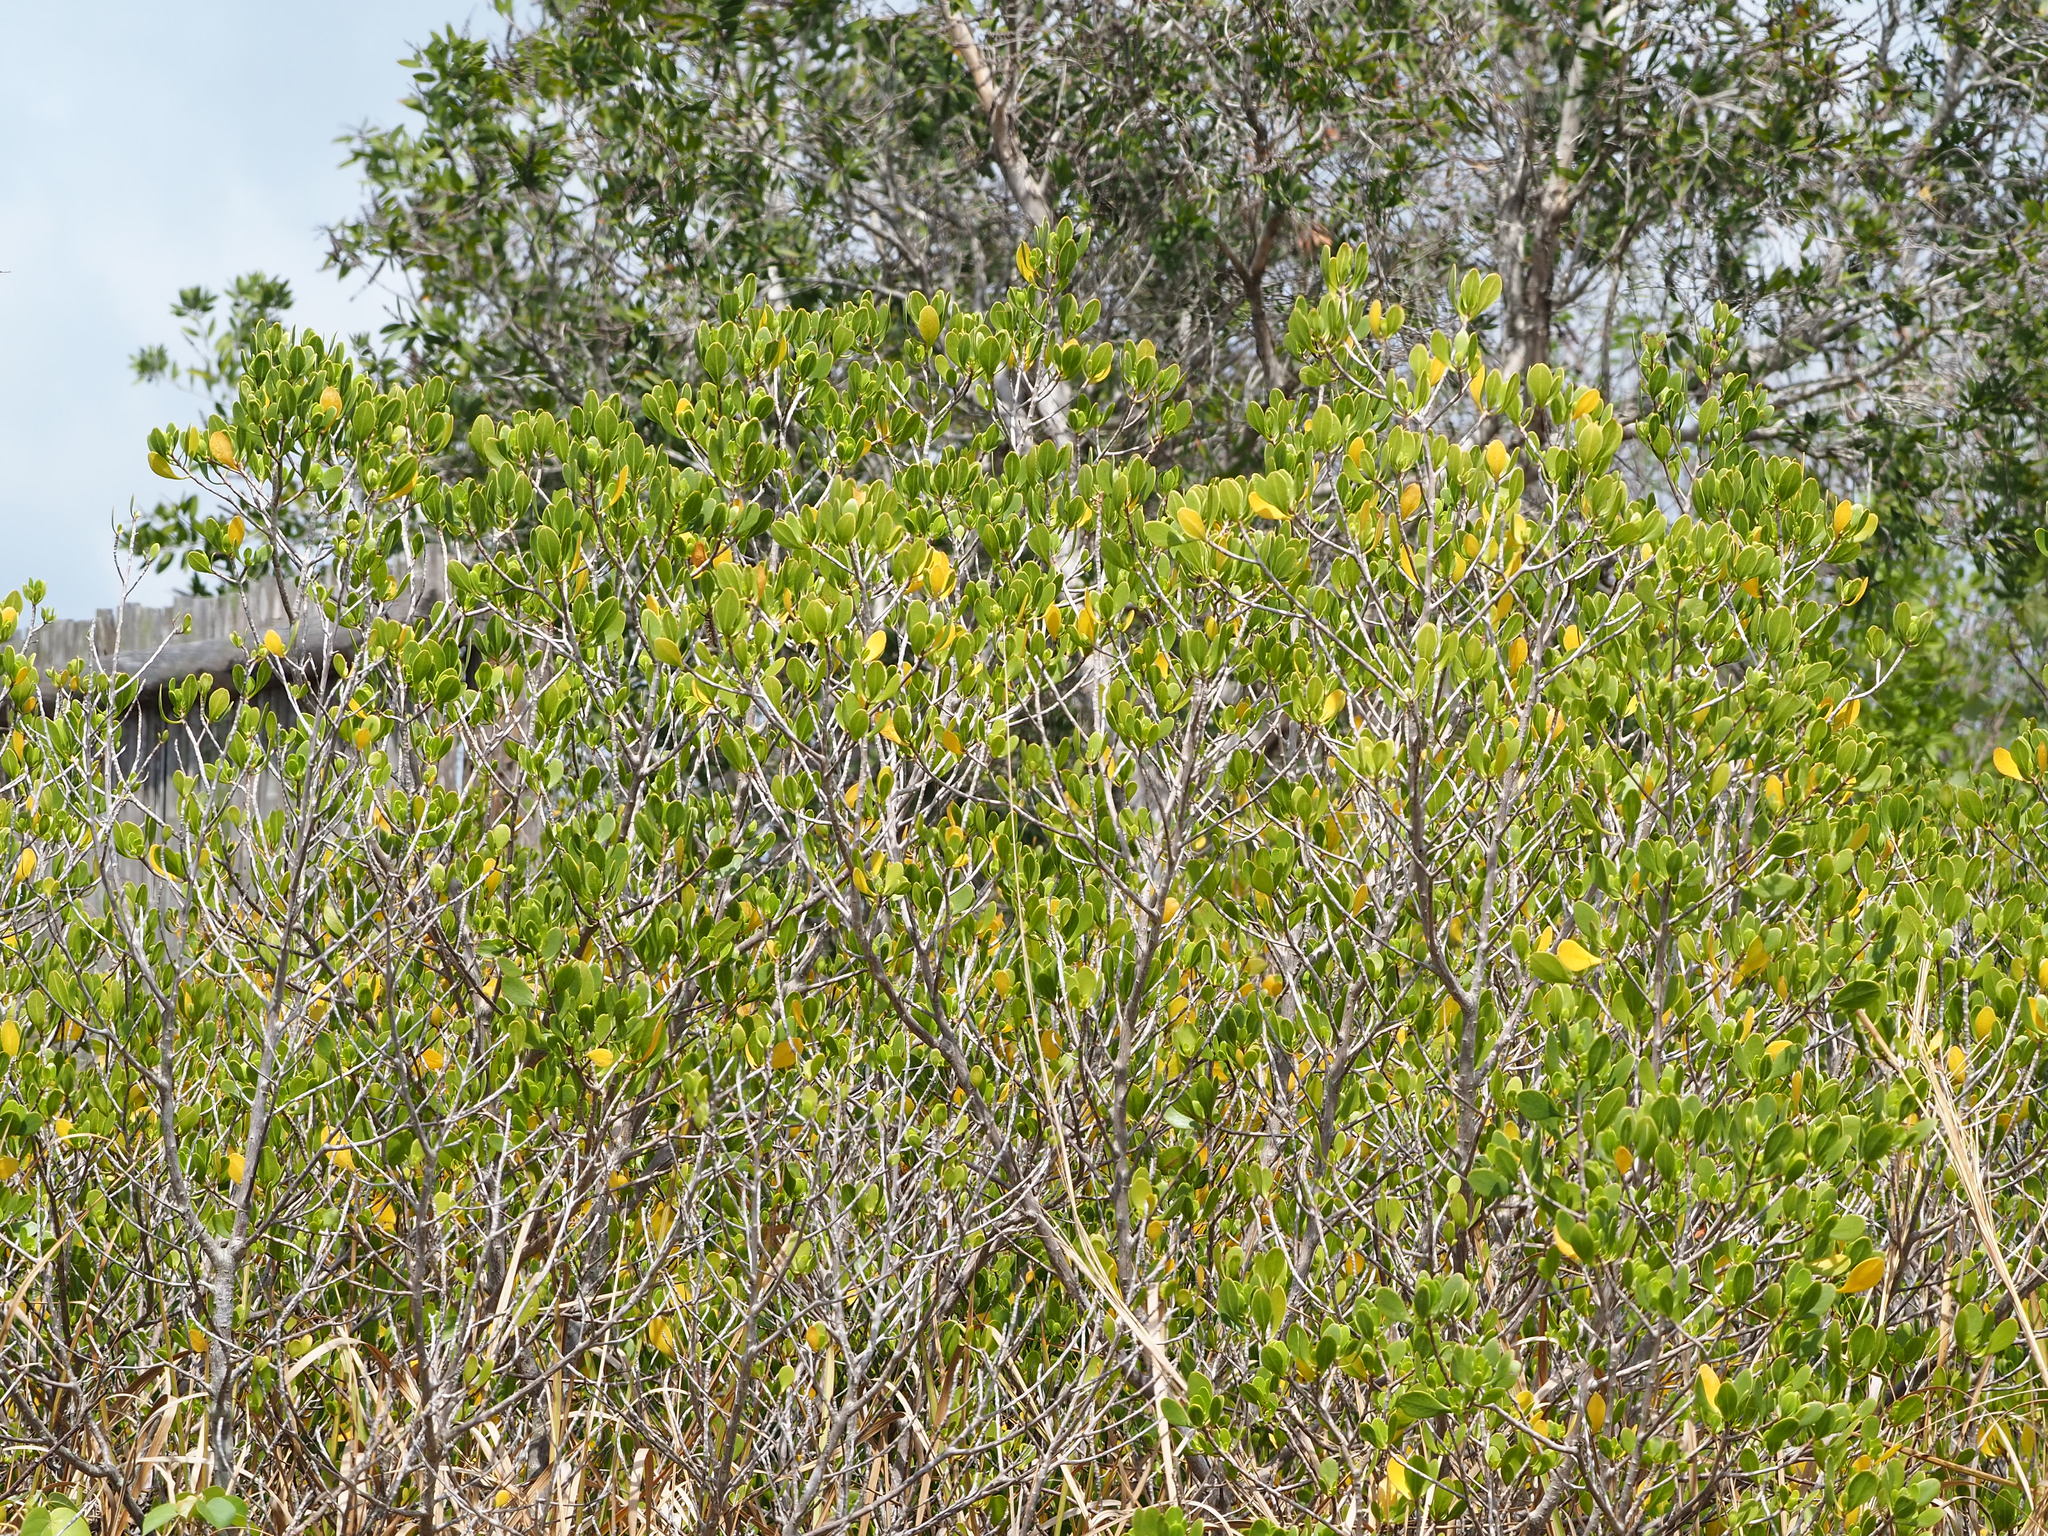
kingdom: Plantae
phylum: Tracheophyta
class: Magnoliopsida
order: Myrtales
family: Combretaceae
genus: Lumnitzera
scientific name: Lumnitzera racemosa
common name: White-flowered black mangrove
